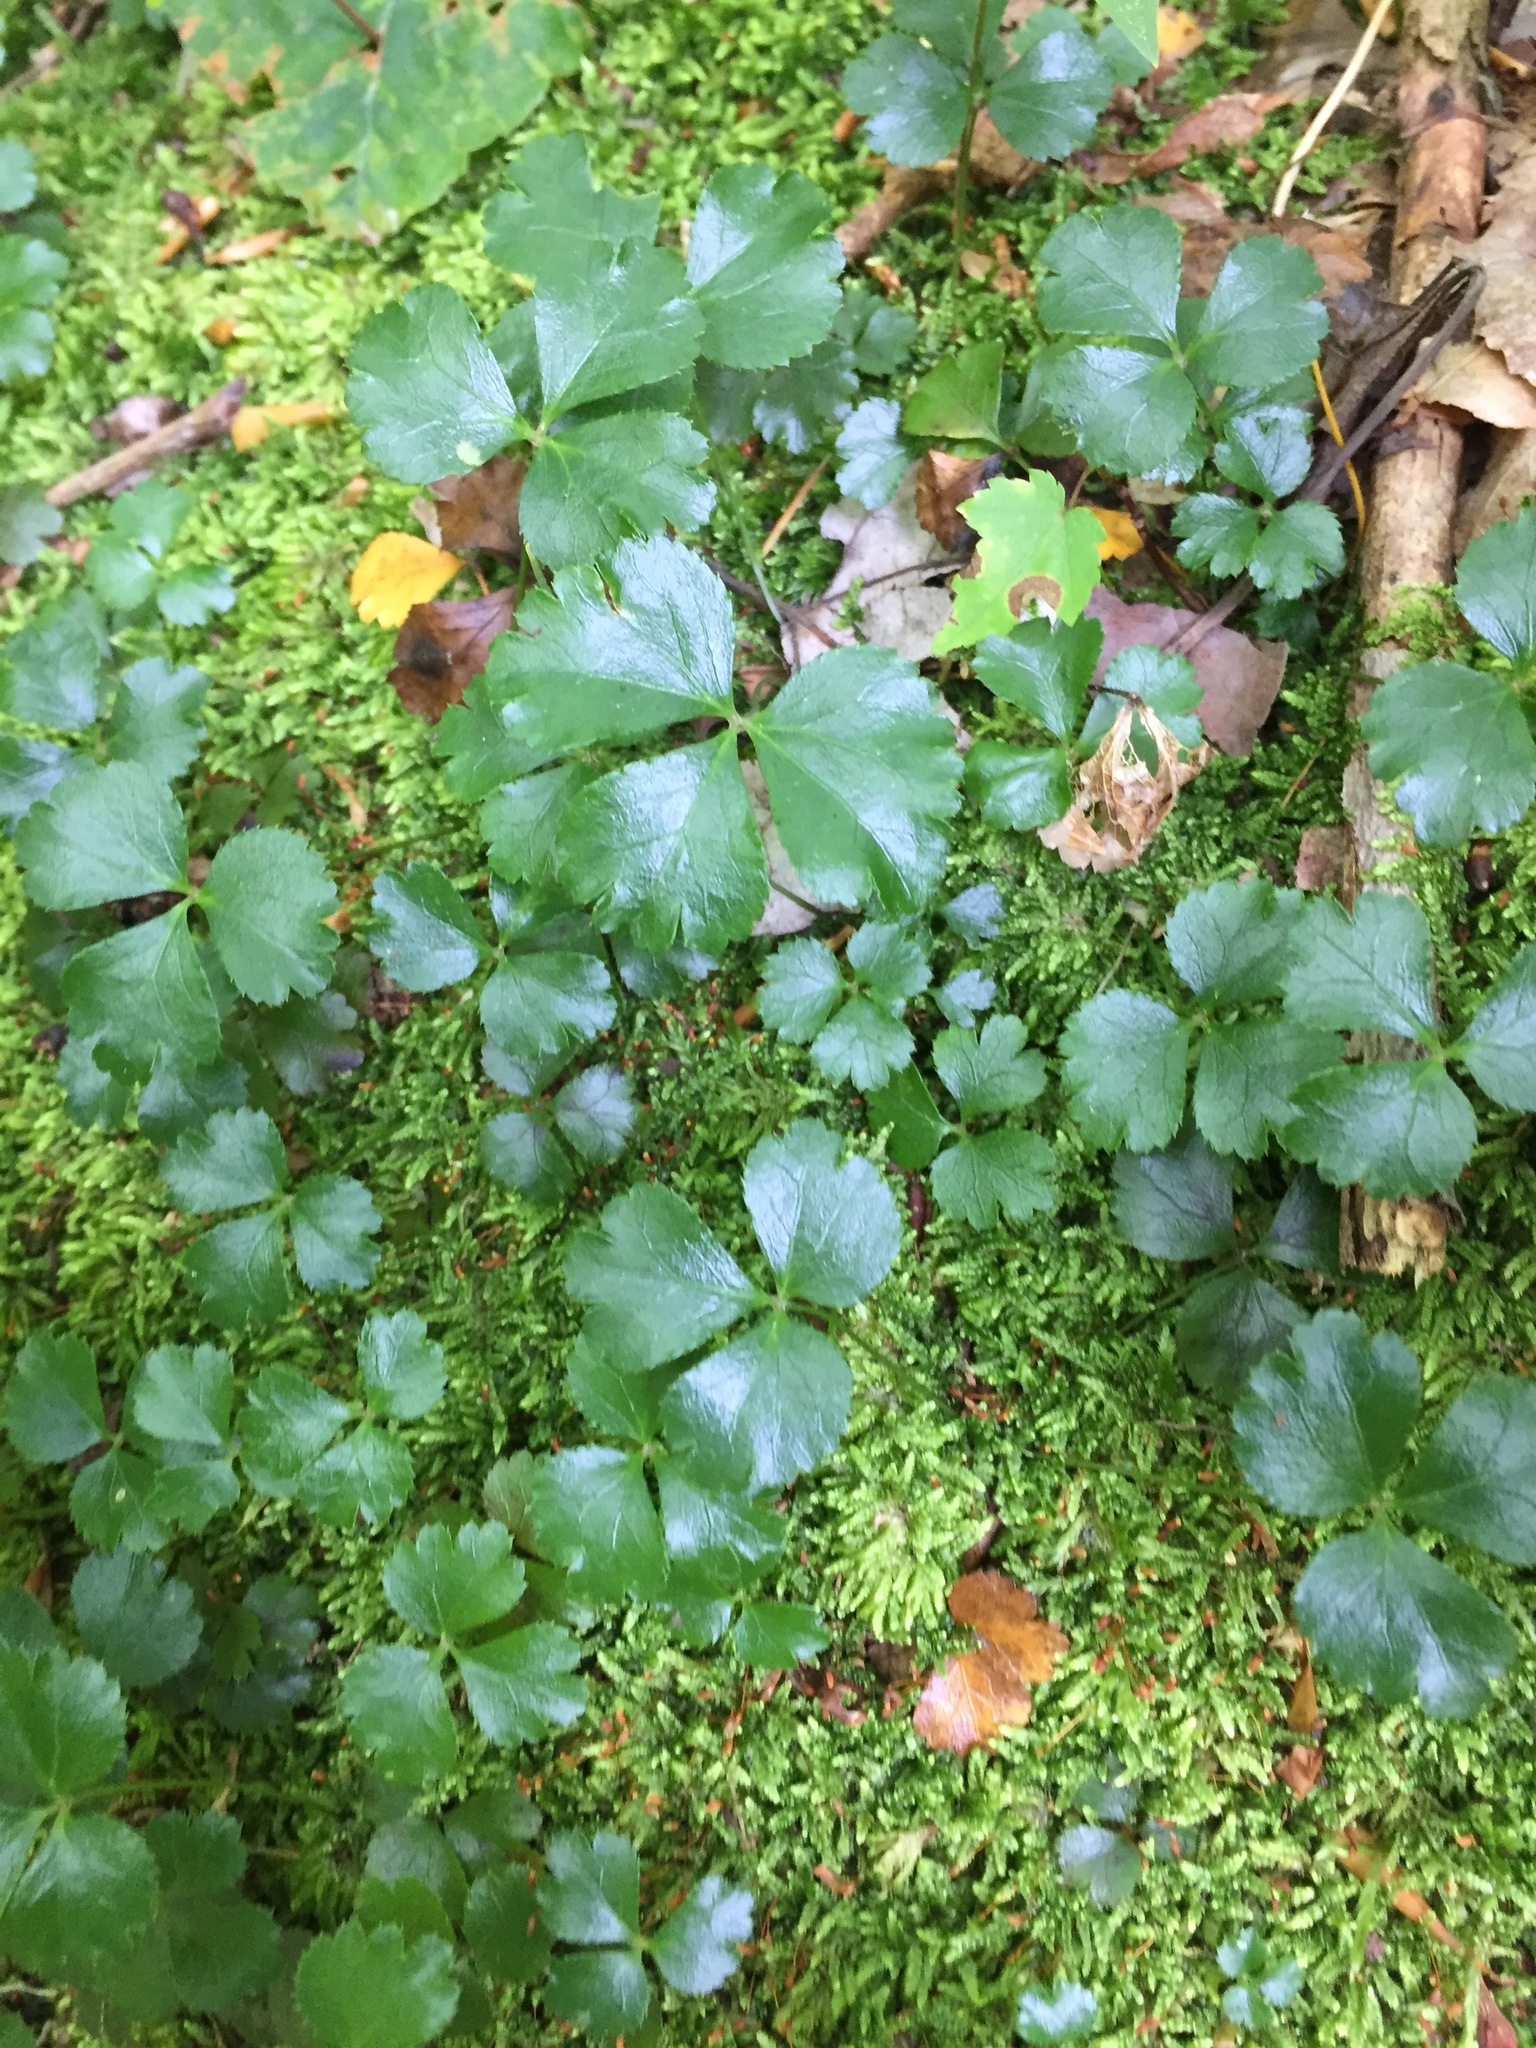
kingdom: Plantae
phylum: Tracheophyta
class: Magnoliopsida
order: Ranunculales
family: Ranunculaceae
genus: Coptis
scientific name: Coptis trifolia
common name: Canker-root
